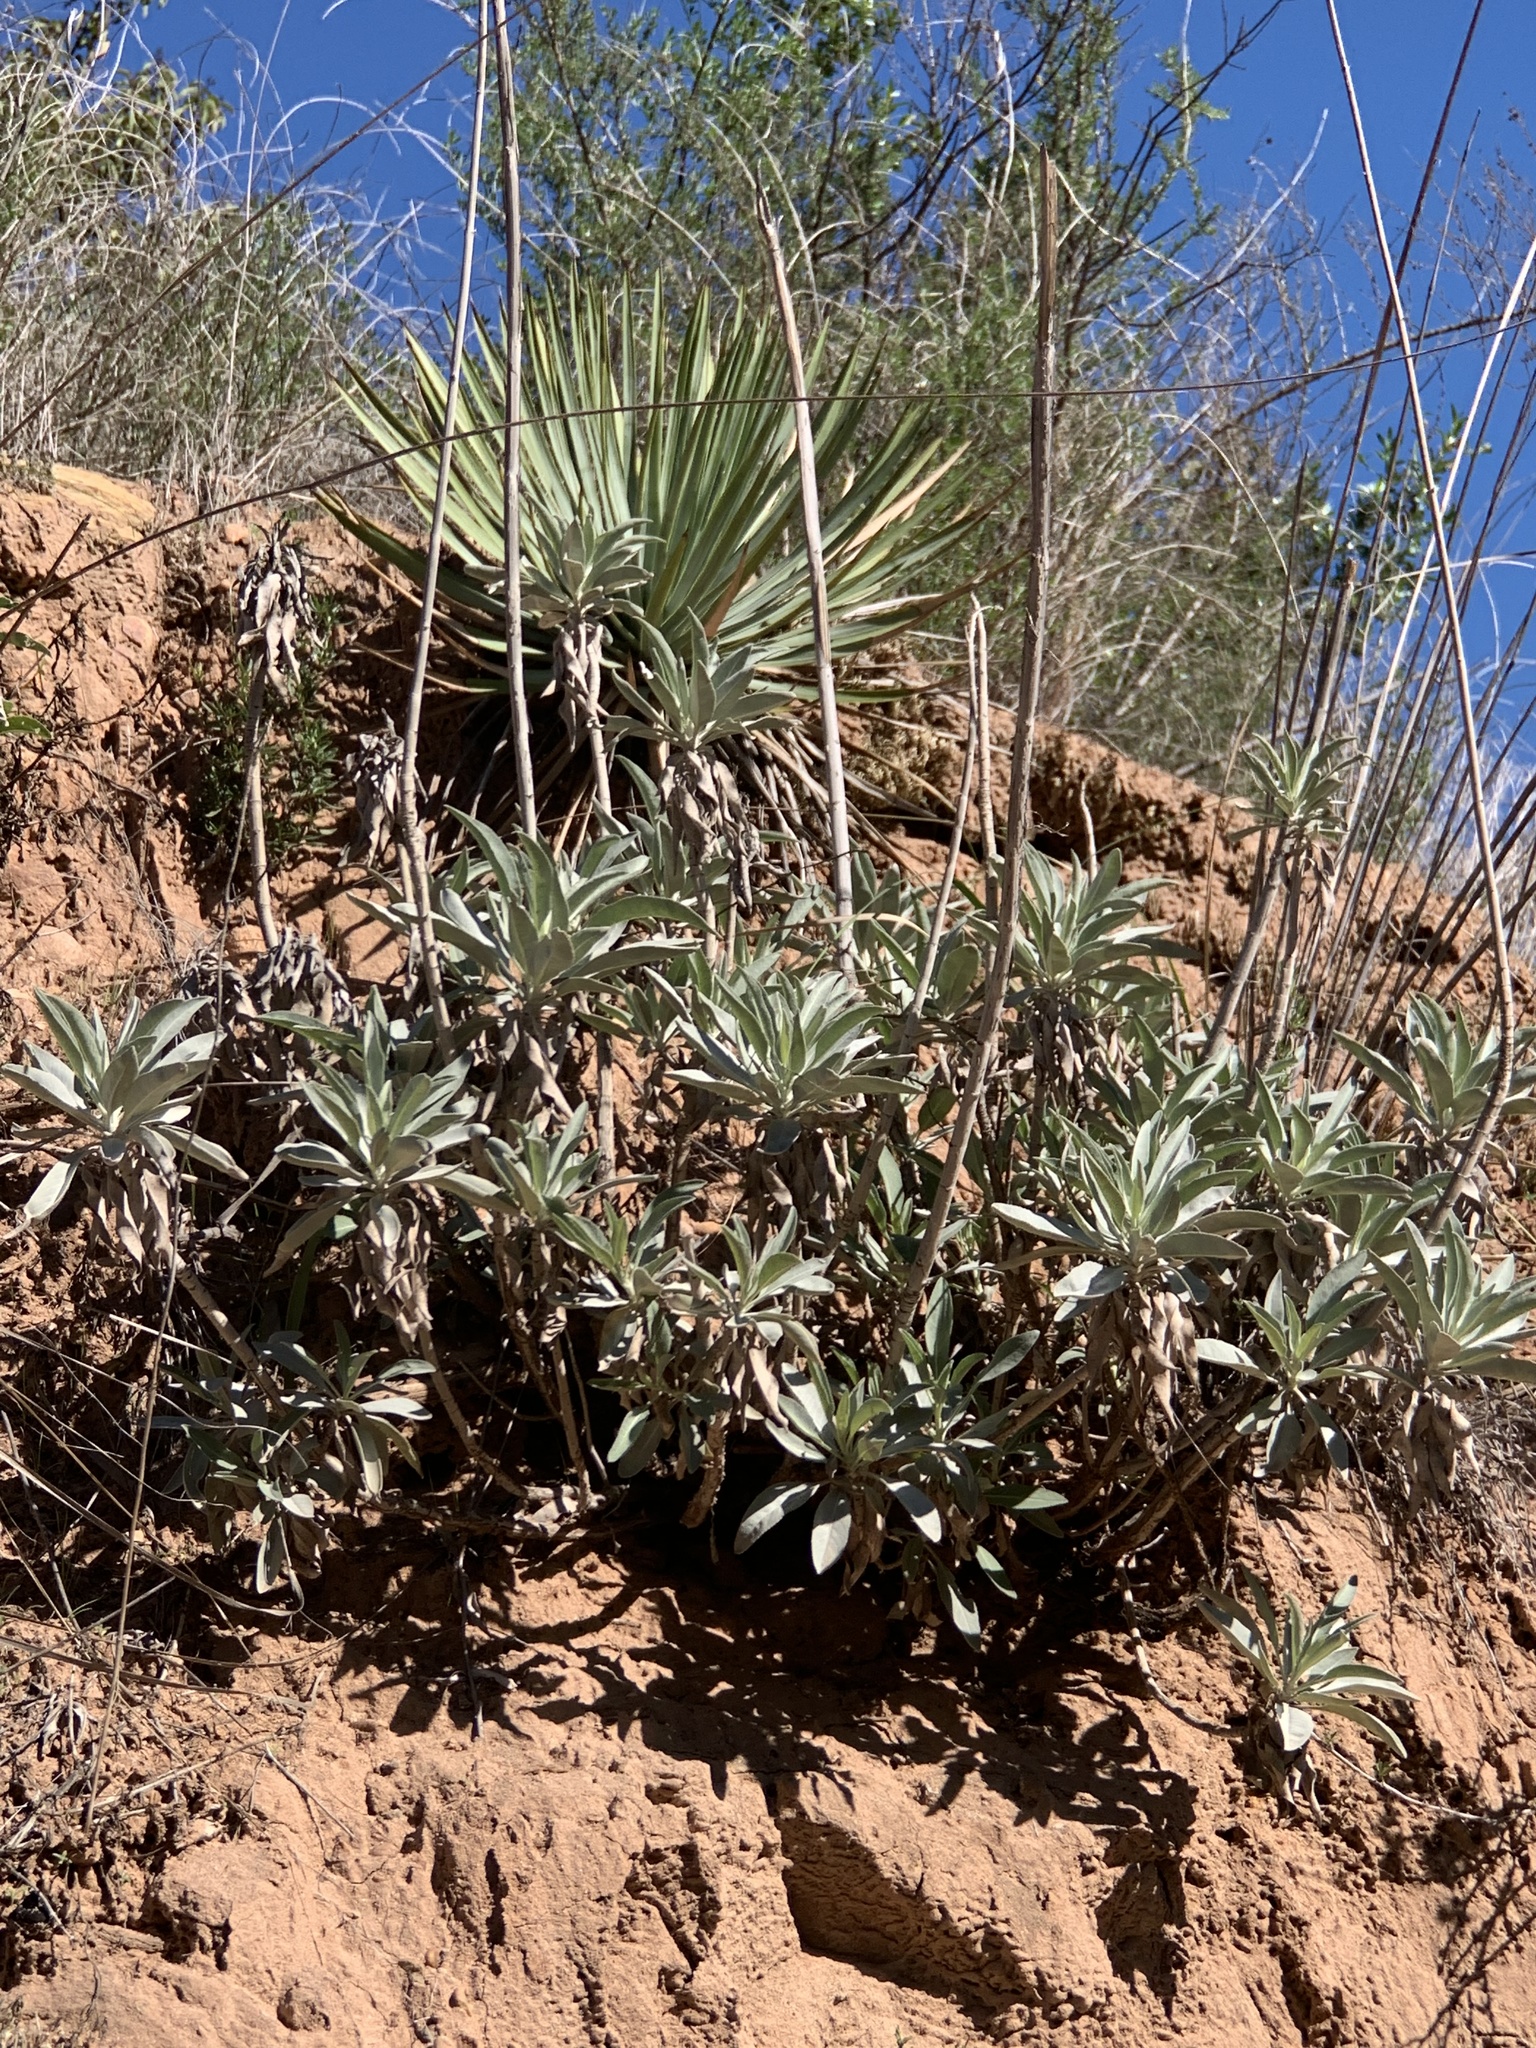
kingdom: Plantae
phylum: Tracheophyta
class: Magnoliopsida
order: Lamiales
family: Lamiaceae
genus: Salvia
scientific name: Salvia apiana
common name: White sage
